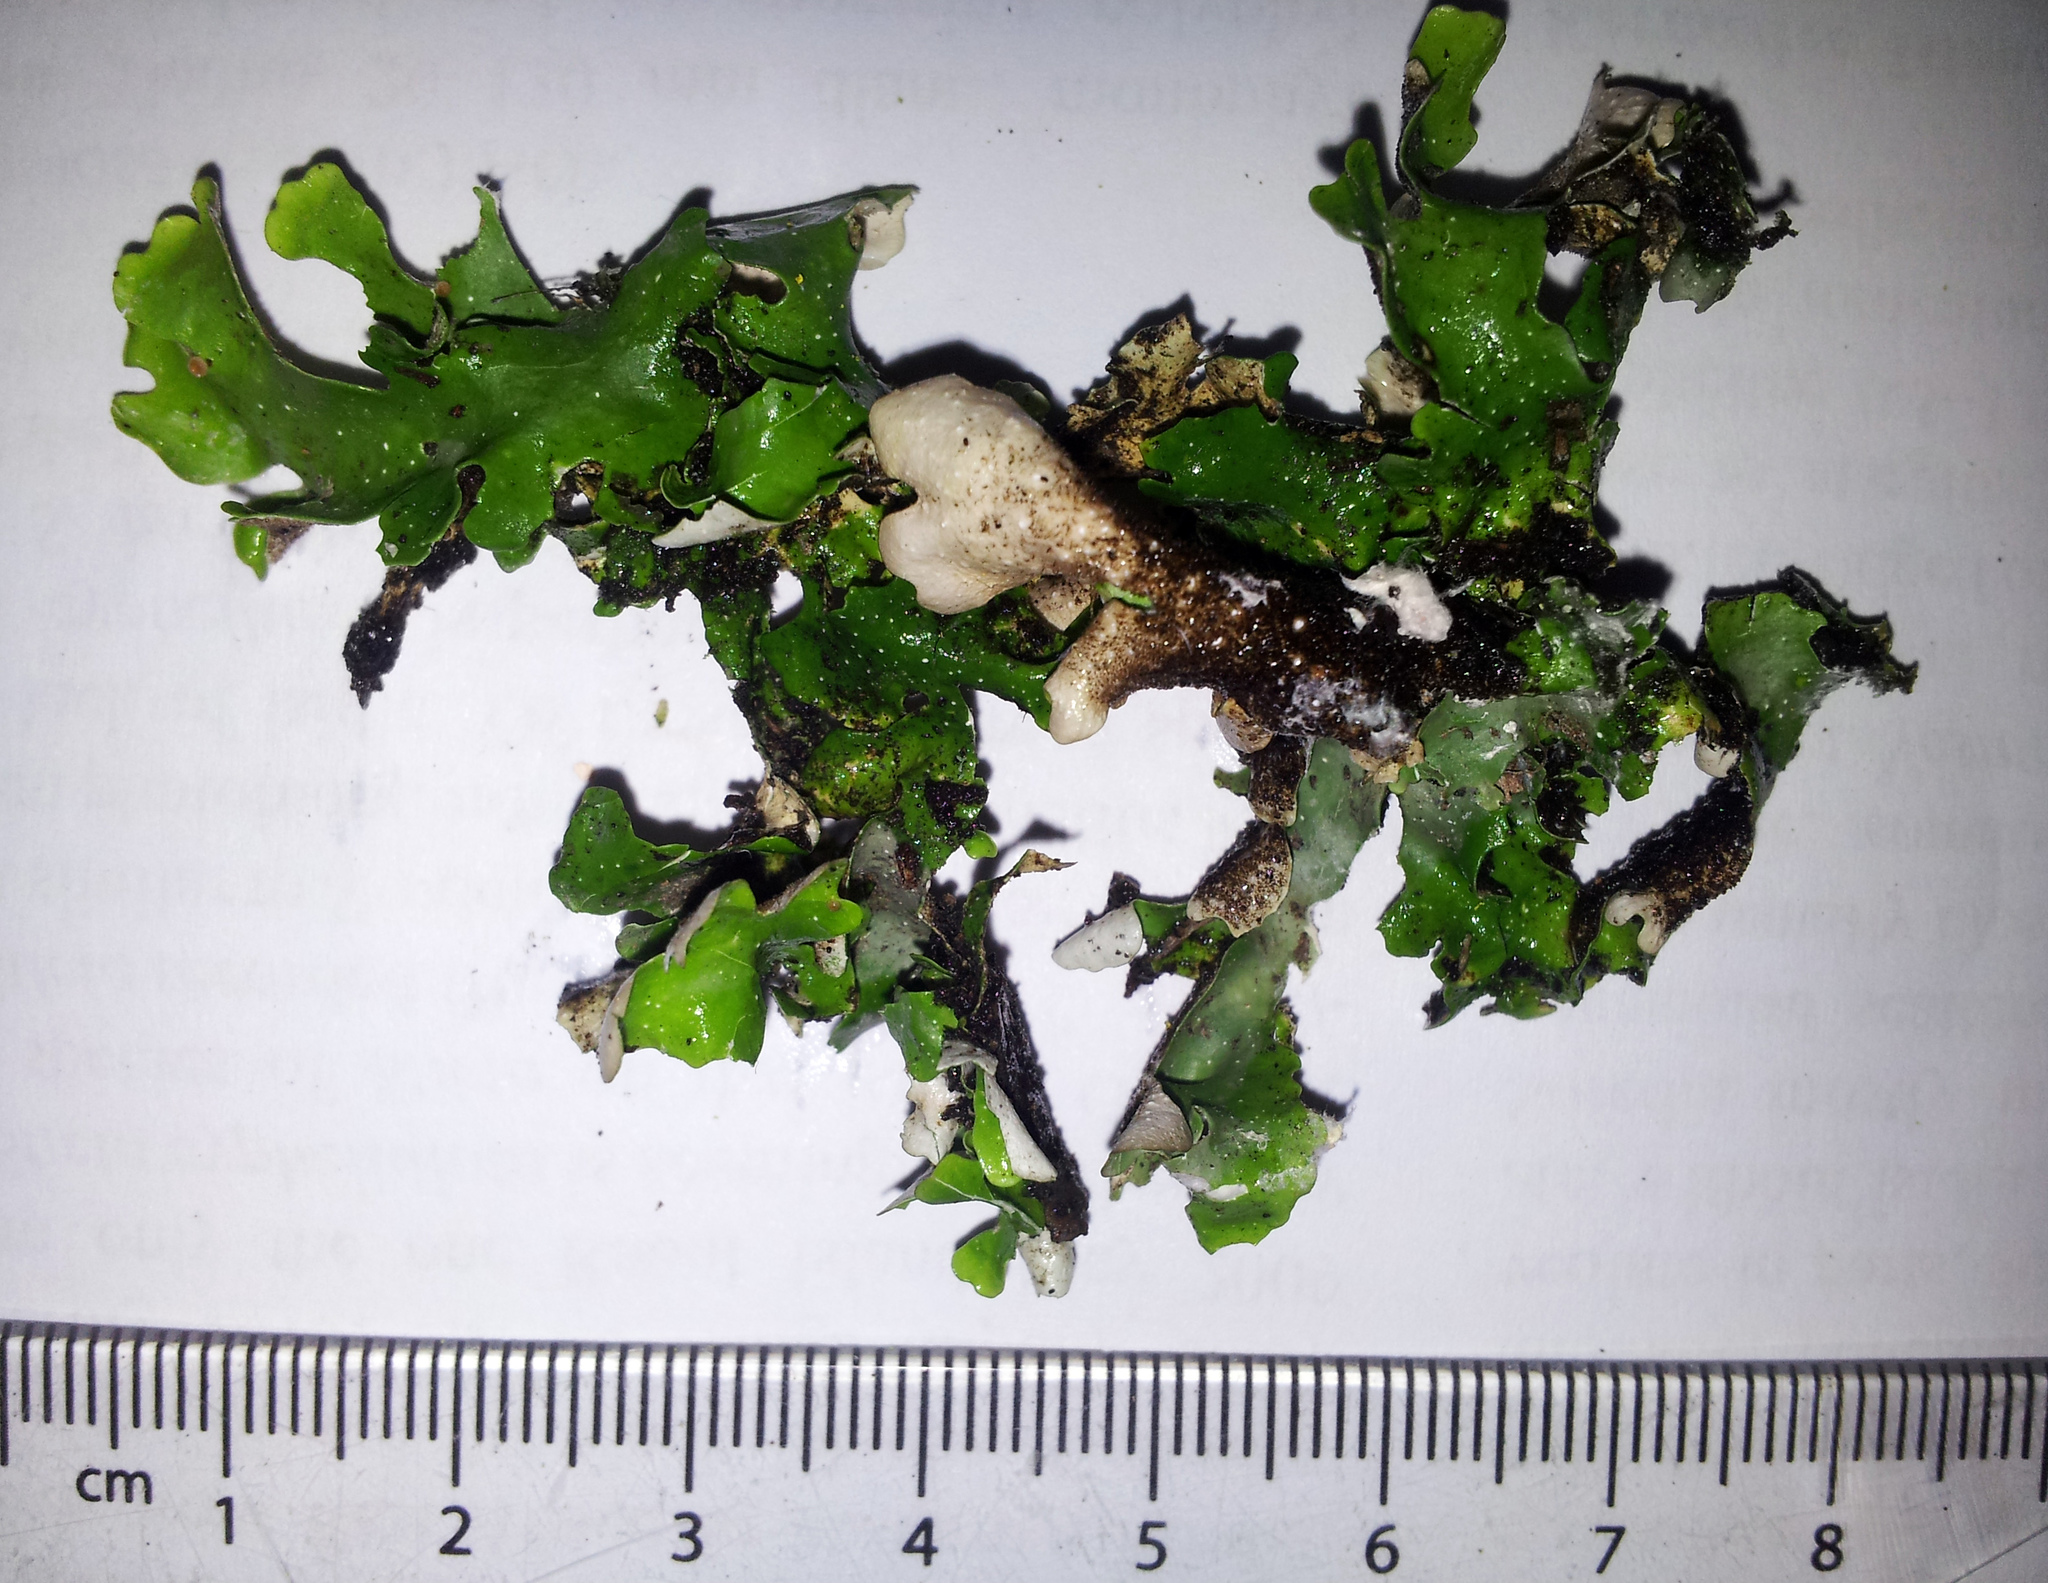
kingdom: Fungi
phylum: Ascomycota
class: Lecanoromycetes
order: Peltigerales
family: Lobariaceae
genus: Pseudocyphellaria
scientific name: Pseudocyphellaria lividofusca
